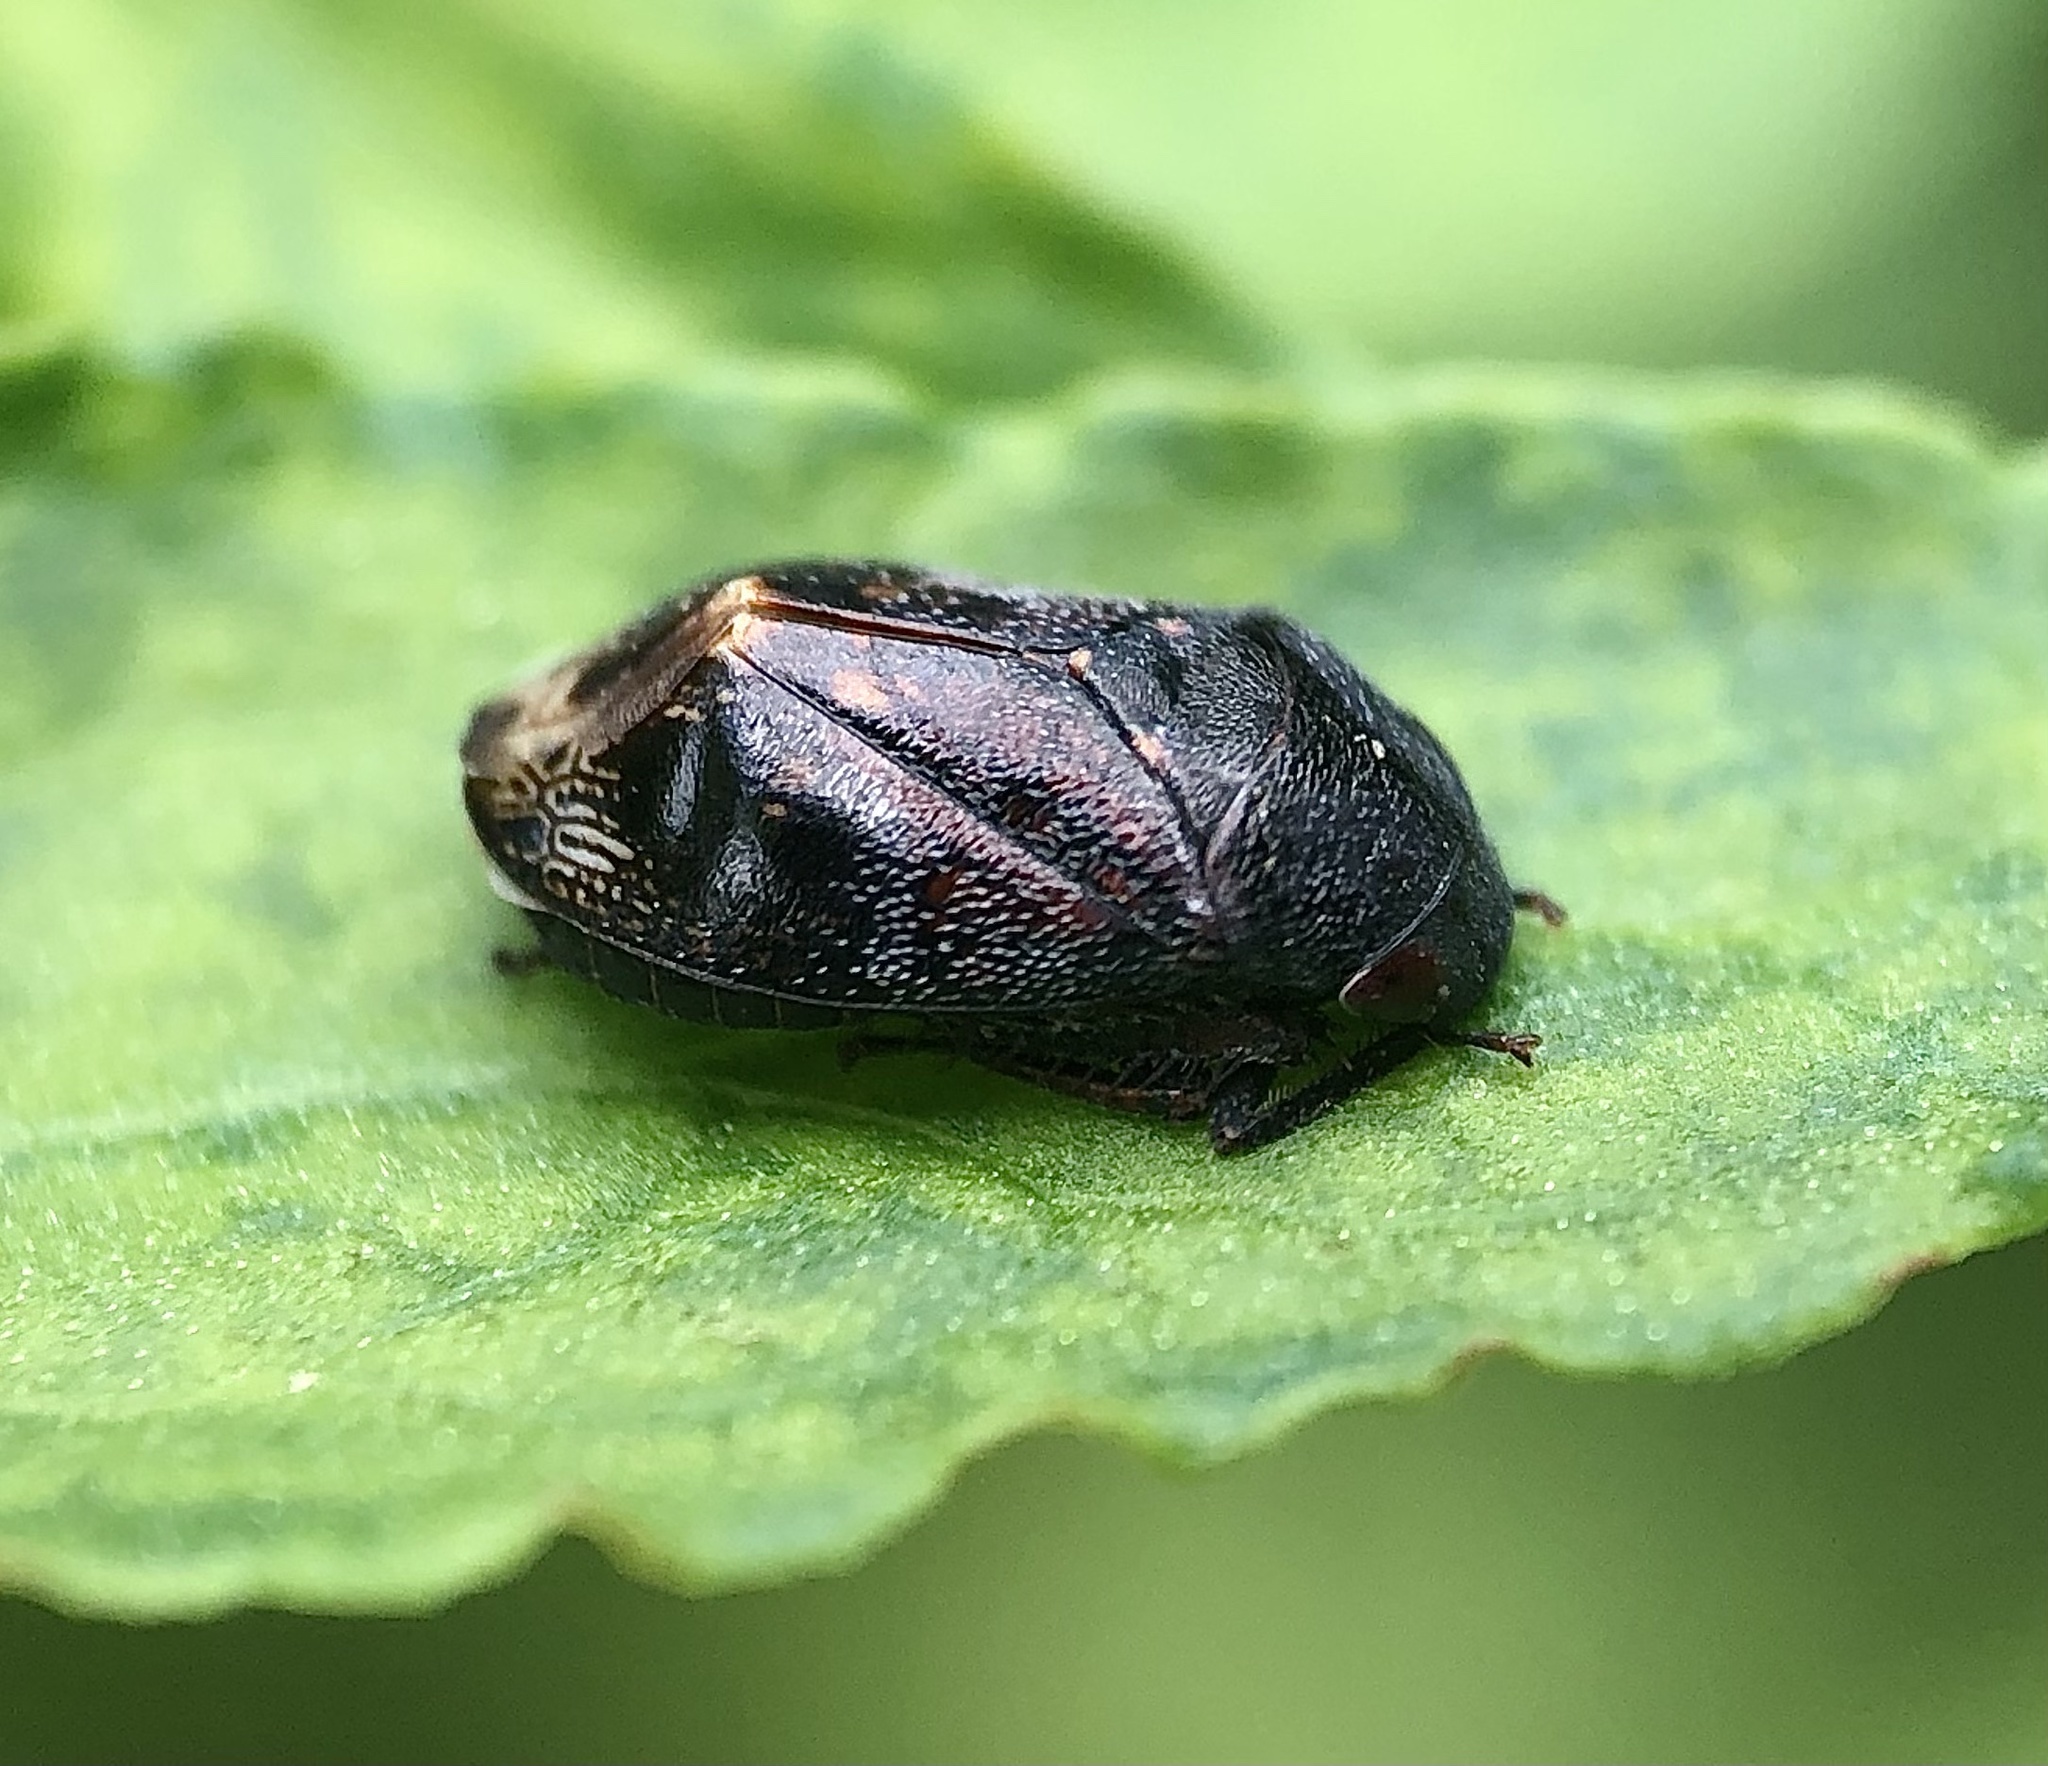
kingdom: Animalia
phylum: Arthropoda
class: Insecta
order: Hemiptera
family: Cicadellidae
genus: Penthimia
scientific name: Penthimia americana
